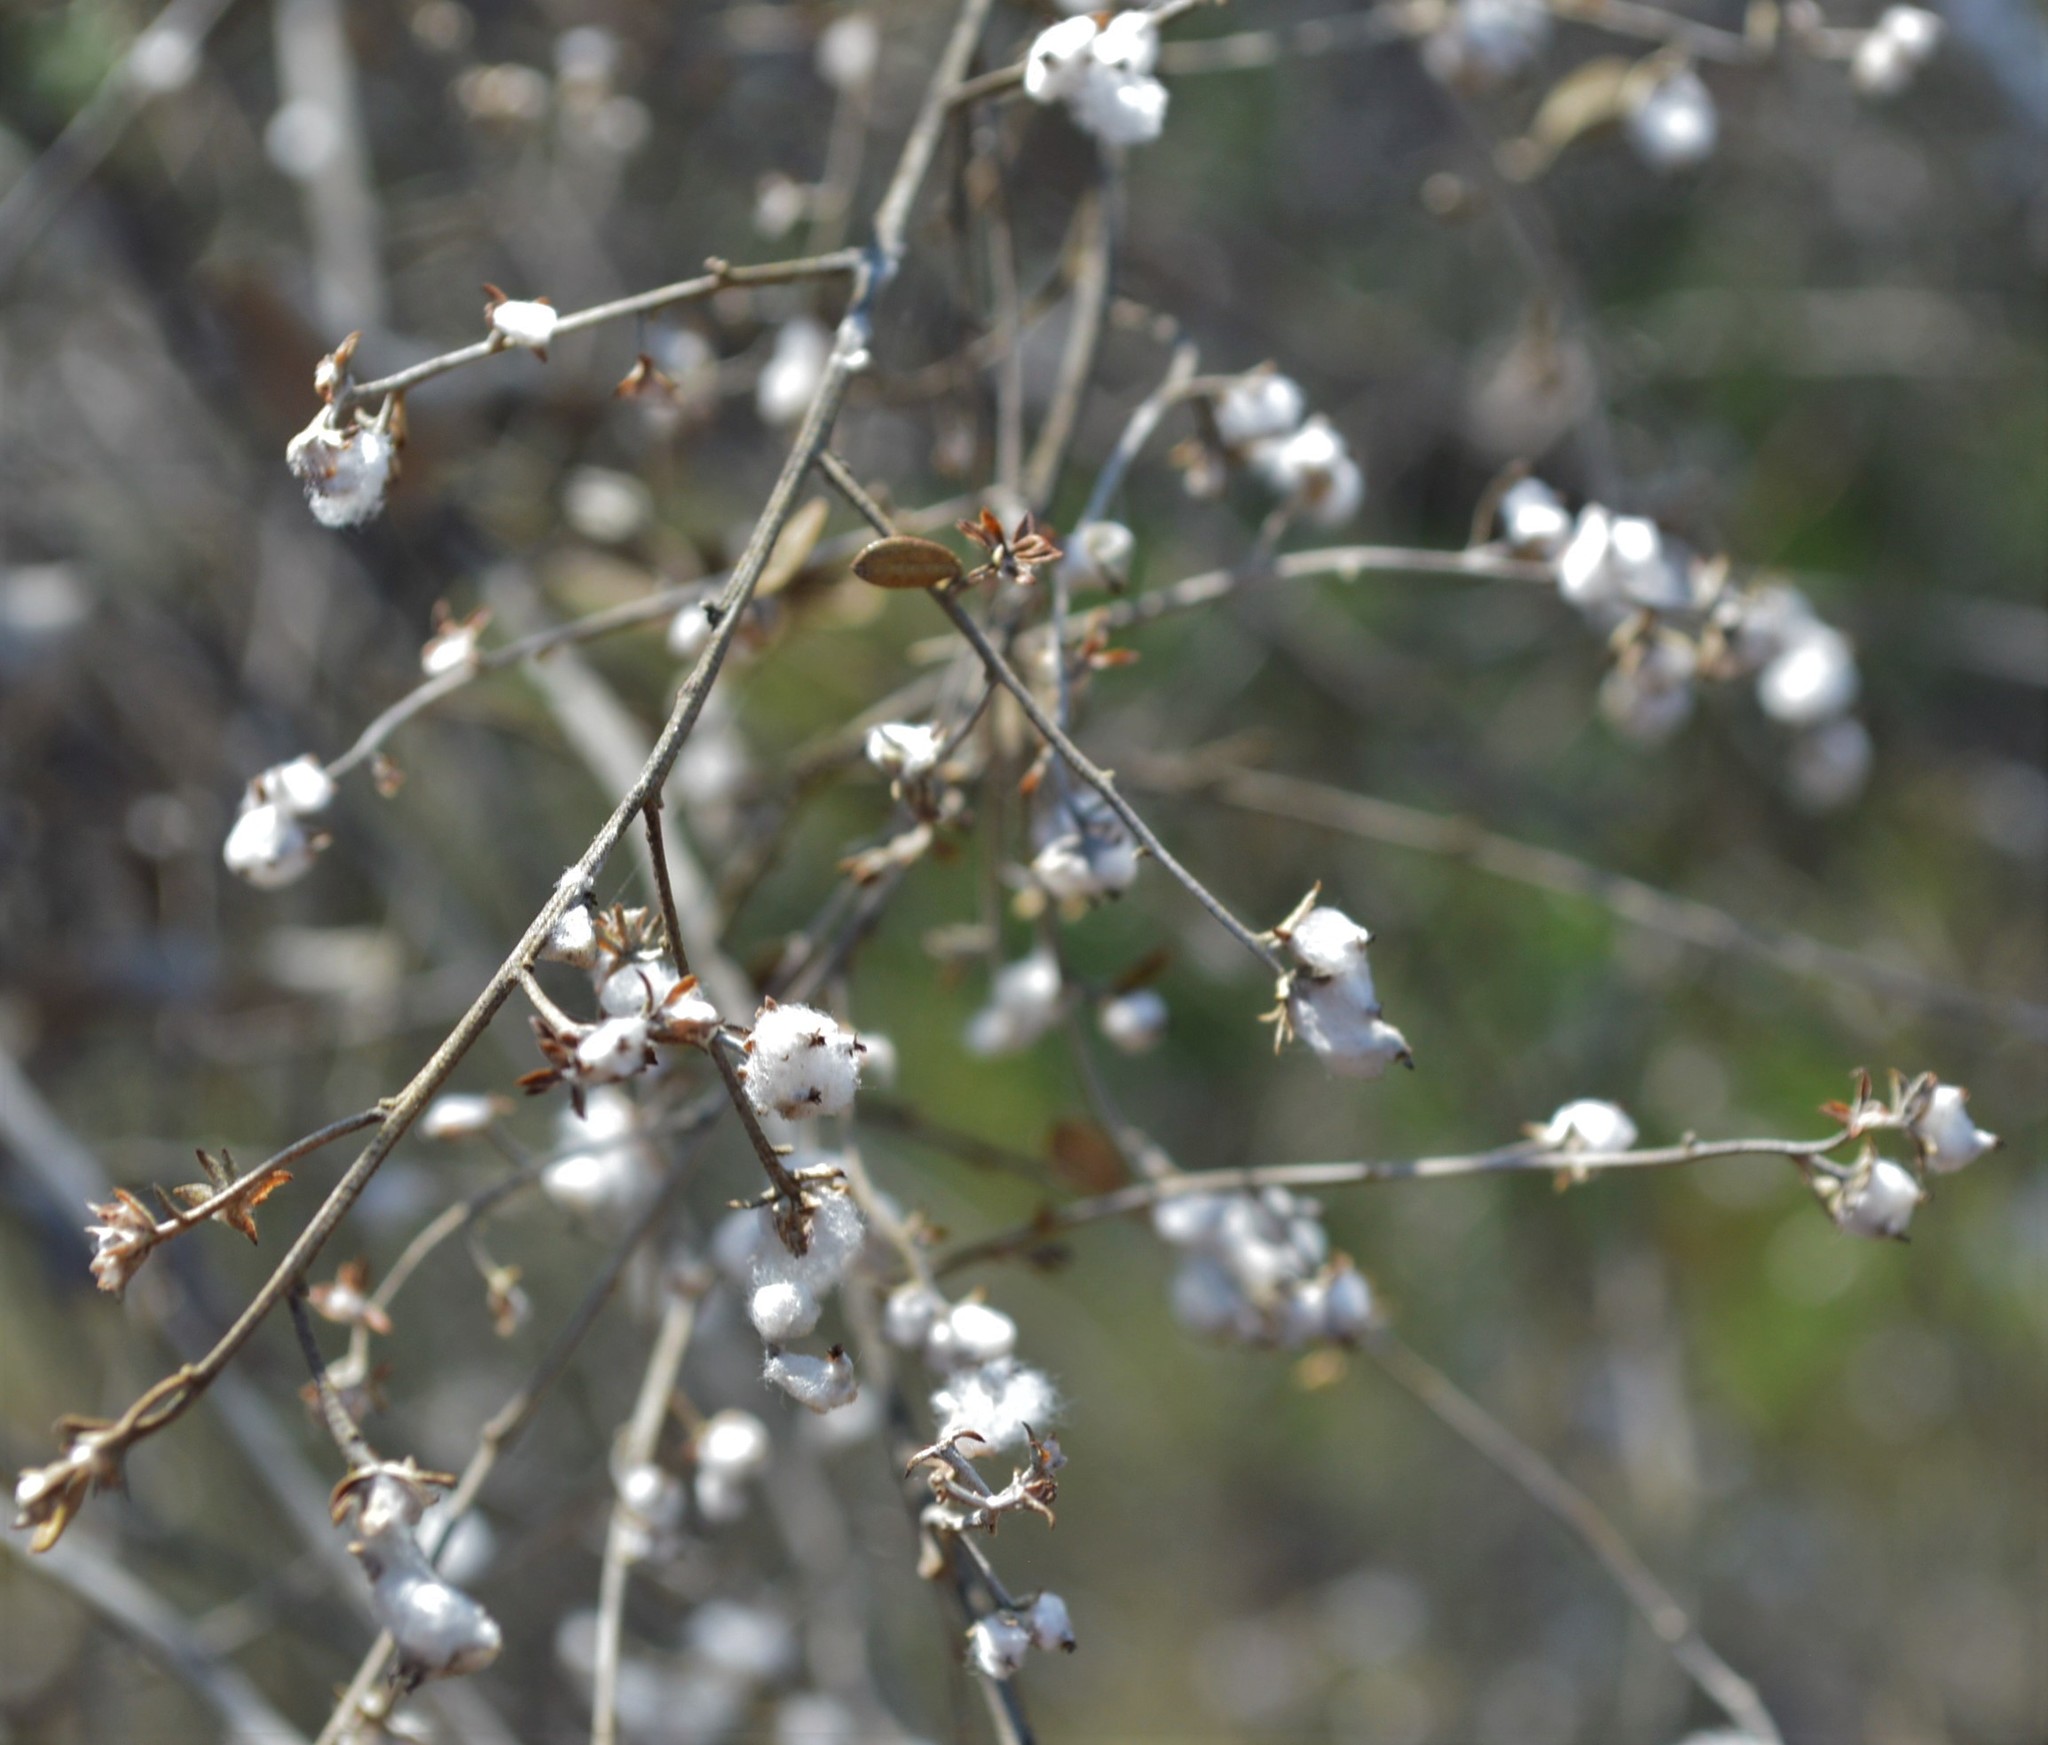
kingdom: Plantae
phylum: Tracheophyta
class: Magnoliopsida
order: Asterales
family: Asteraceae
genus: Tarchonanthus
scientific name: Tarchonanthus camphoratus
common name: Camphorwood
